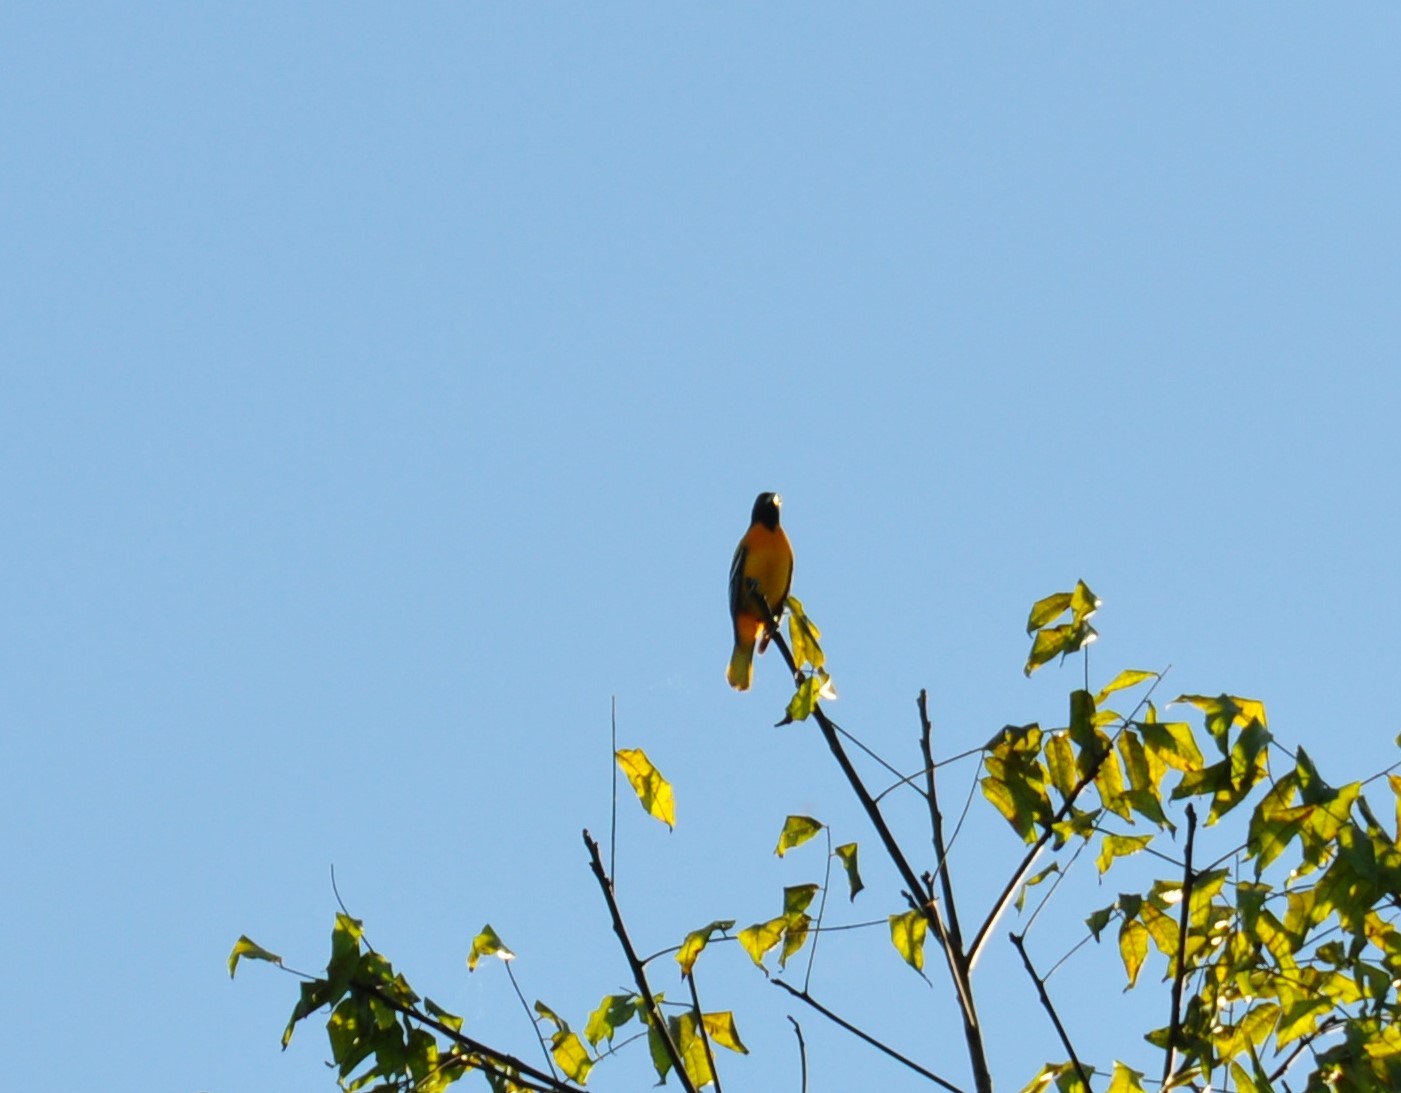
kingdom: Animalia
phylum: Chordata
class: Aves
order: Passeriformes
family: Icteridae
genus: Icterus
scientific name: Icterus galbula
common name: Baltimore oriole
